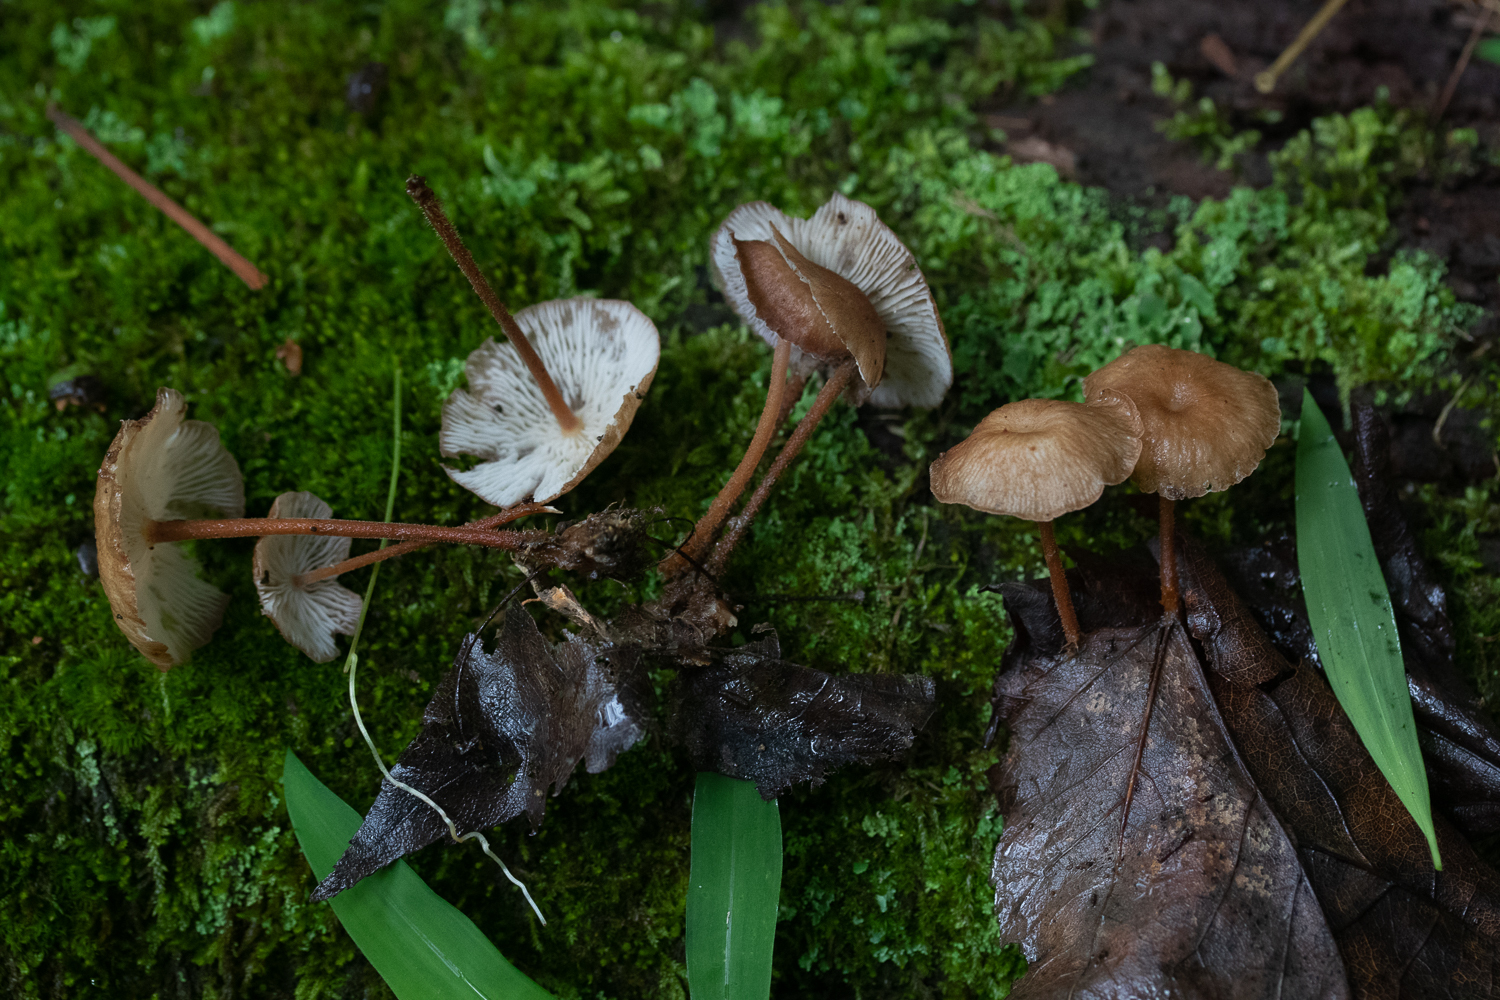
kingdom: Fungi
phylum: Basidiomycota
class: Agaricomycetes
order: Agaricales
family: Omphalotaceae
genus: Collybiopsis
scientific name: Collybiopsis dichroa
